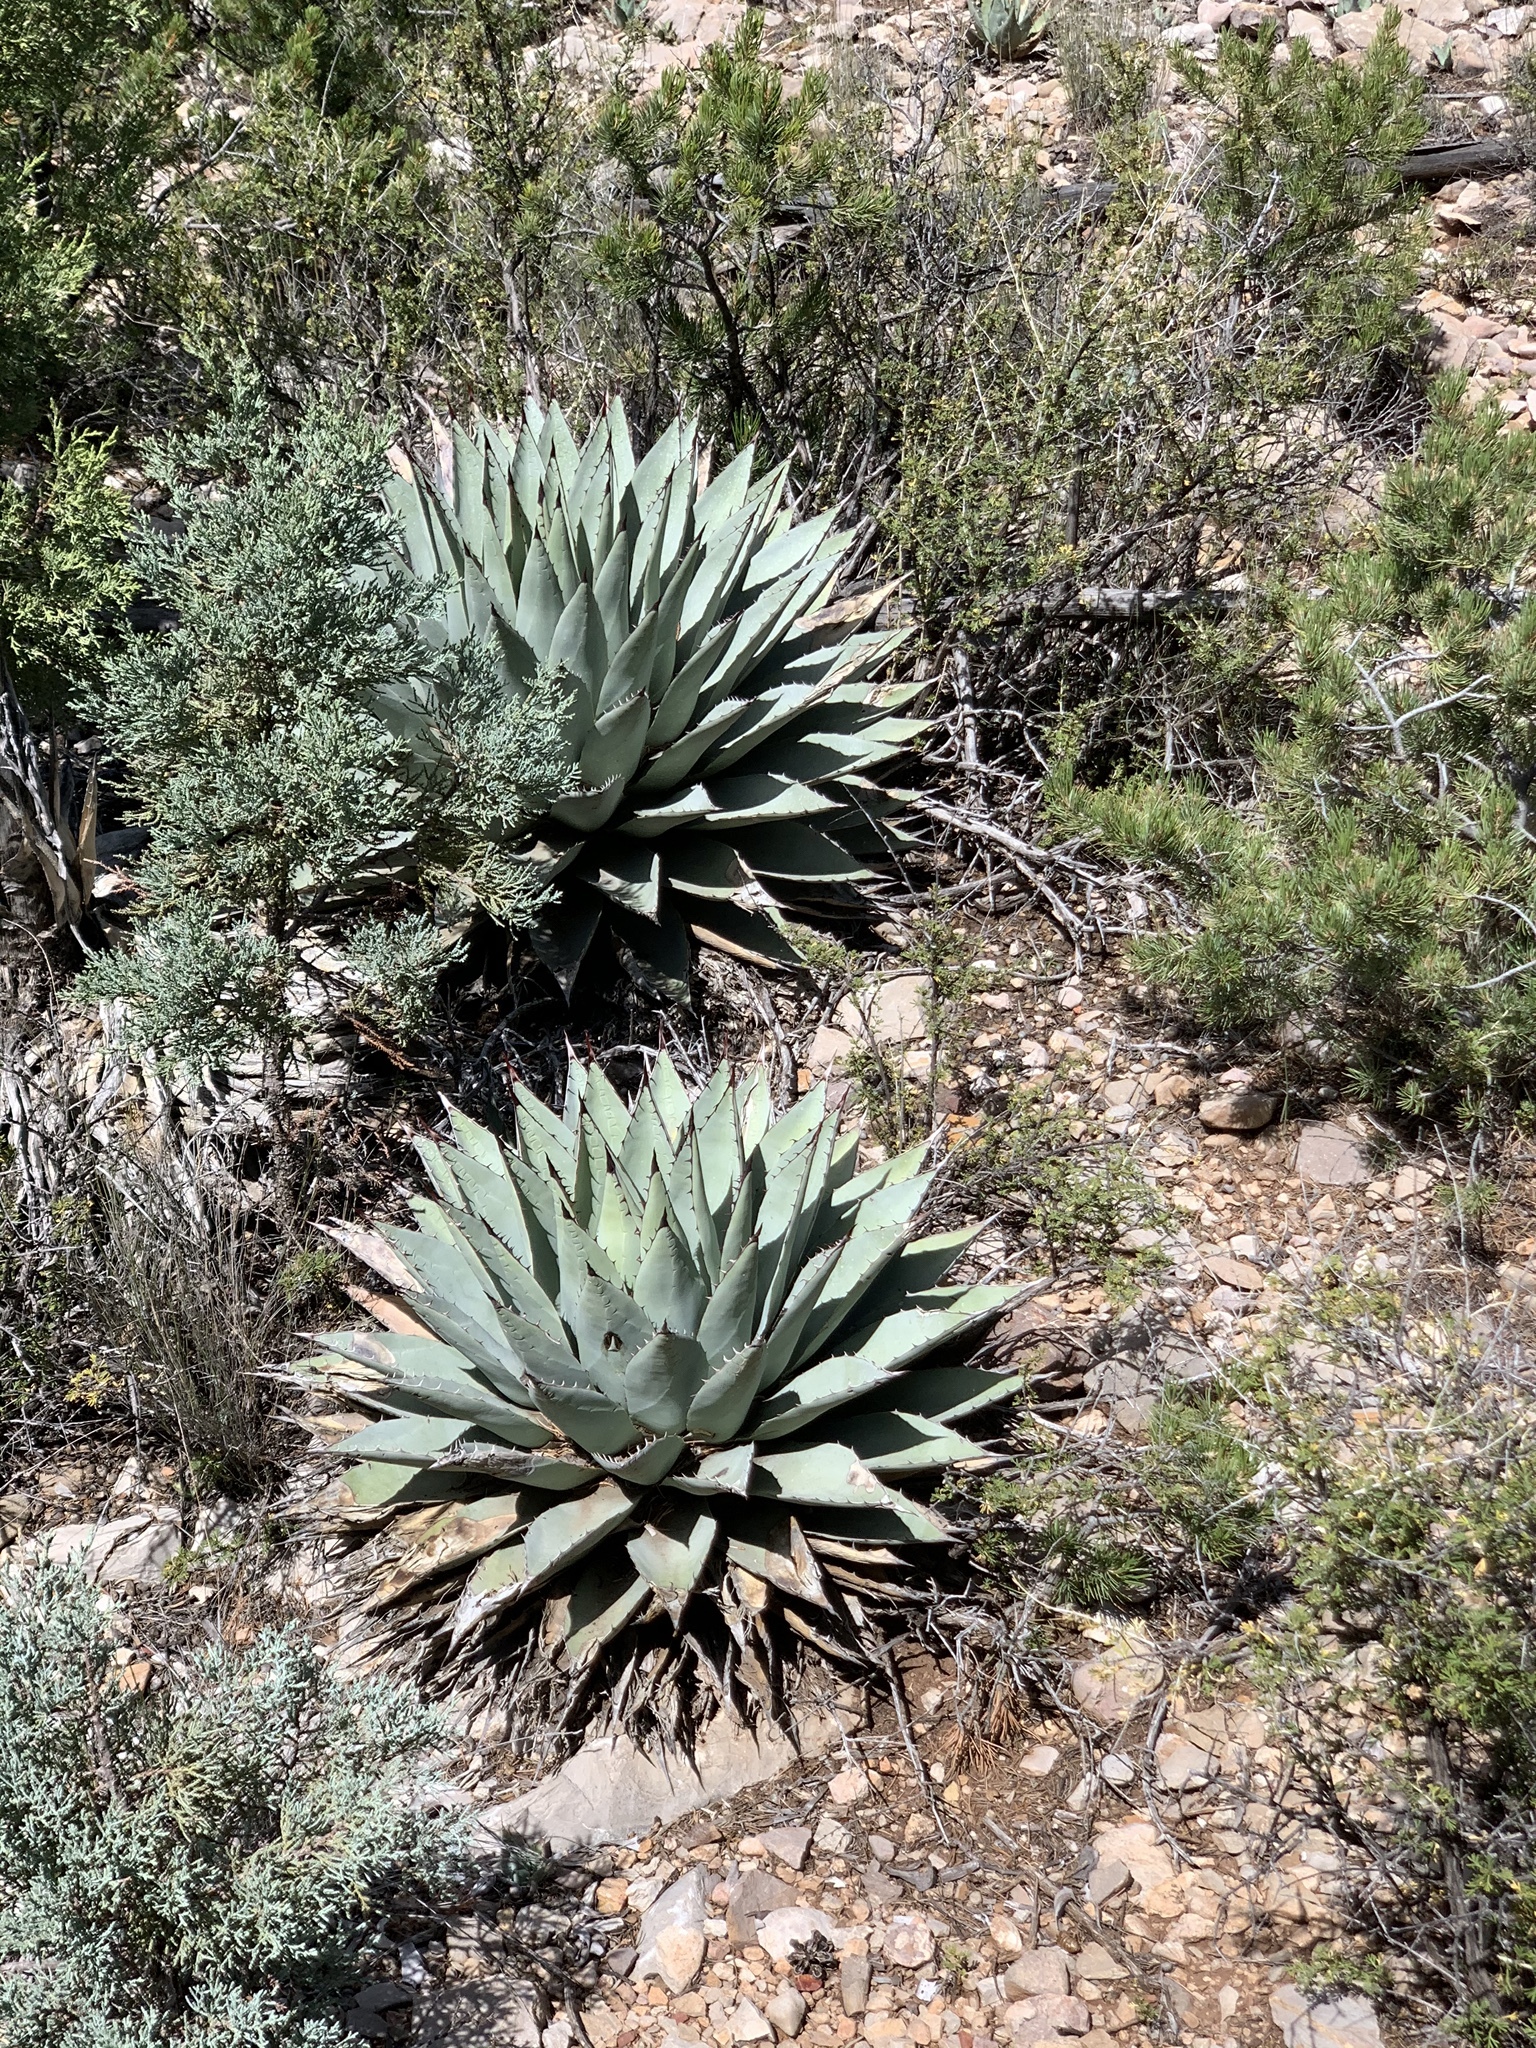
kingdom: Plantae
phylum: Tracheophyta
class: Liliopsida
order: Asparagales
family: Asparagaceae
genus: Agave
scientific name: Agave parryi
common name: Parry's agave
